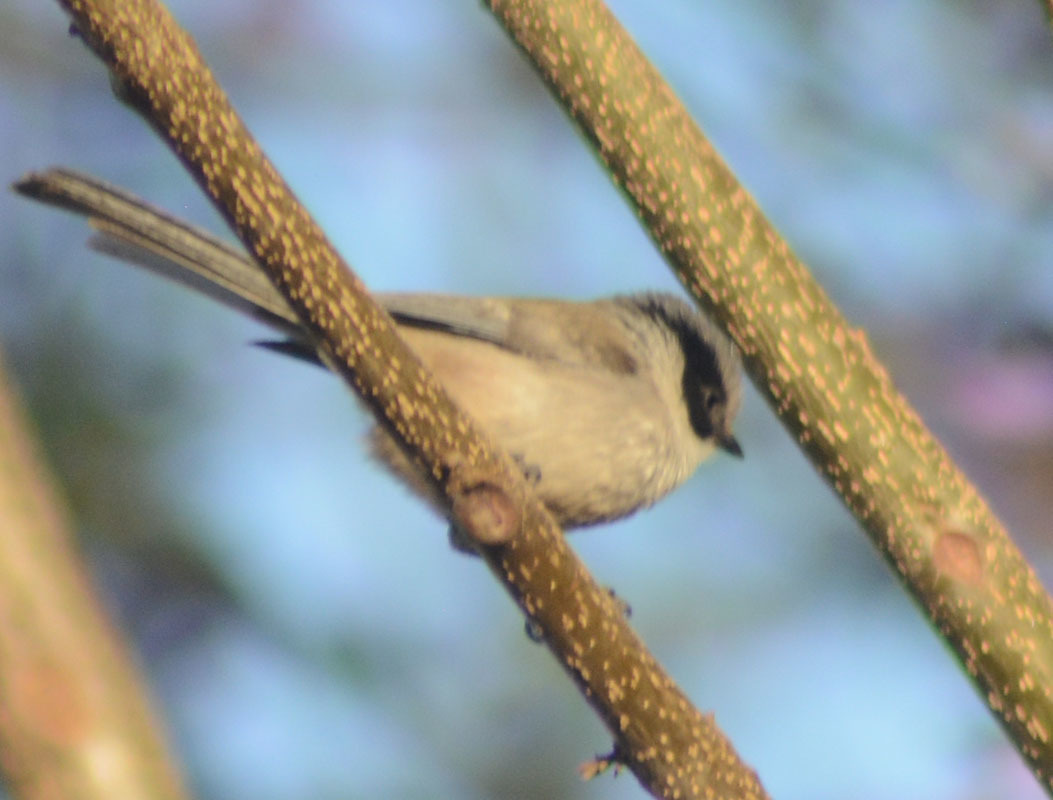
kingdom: Animalia
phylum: Chordata
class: Aves
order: Passeriformes
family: Aegithalidae
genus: Psaltriparus
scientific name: Psaltriparus minimus
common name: American bushtit
